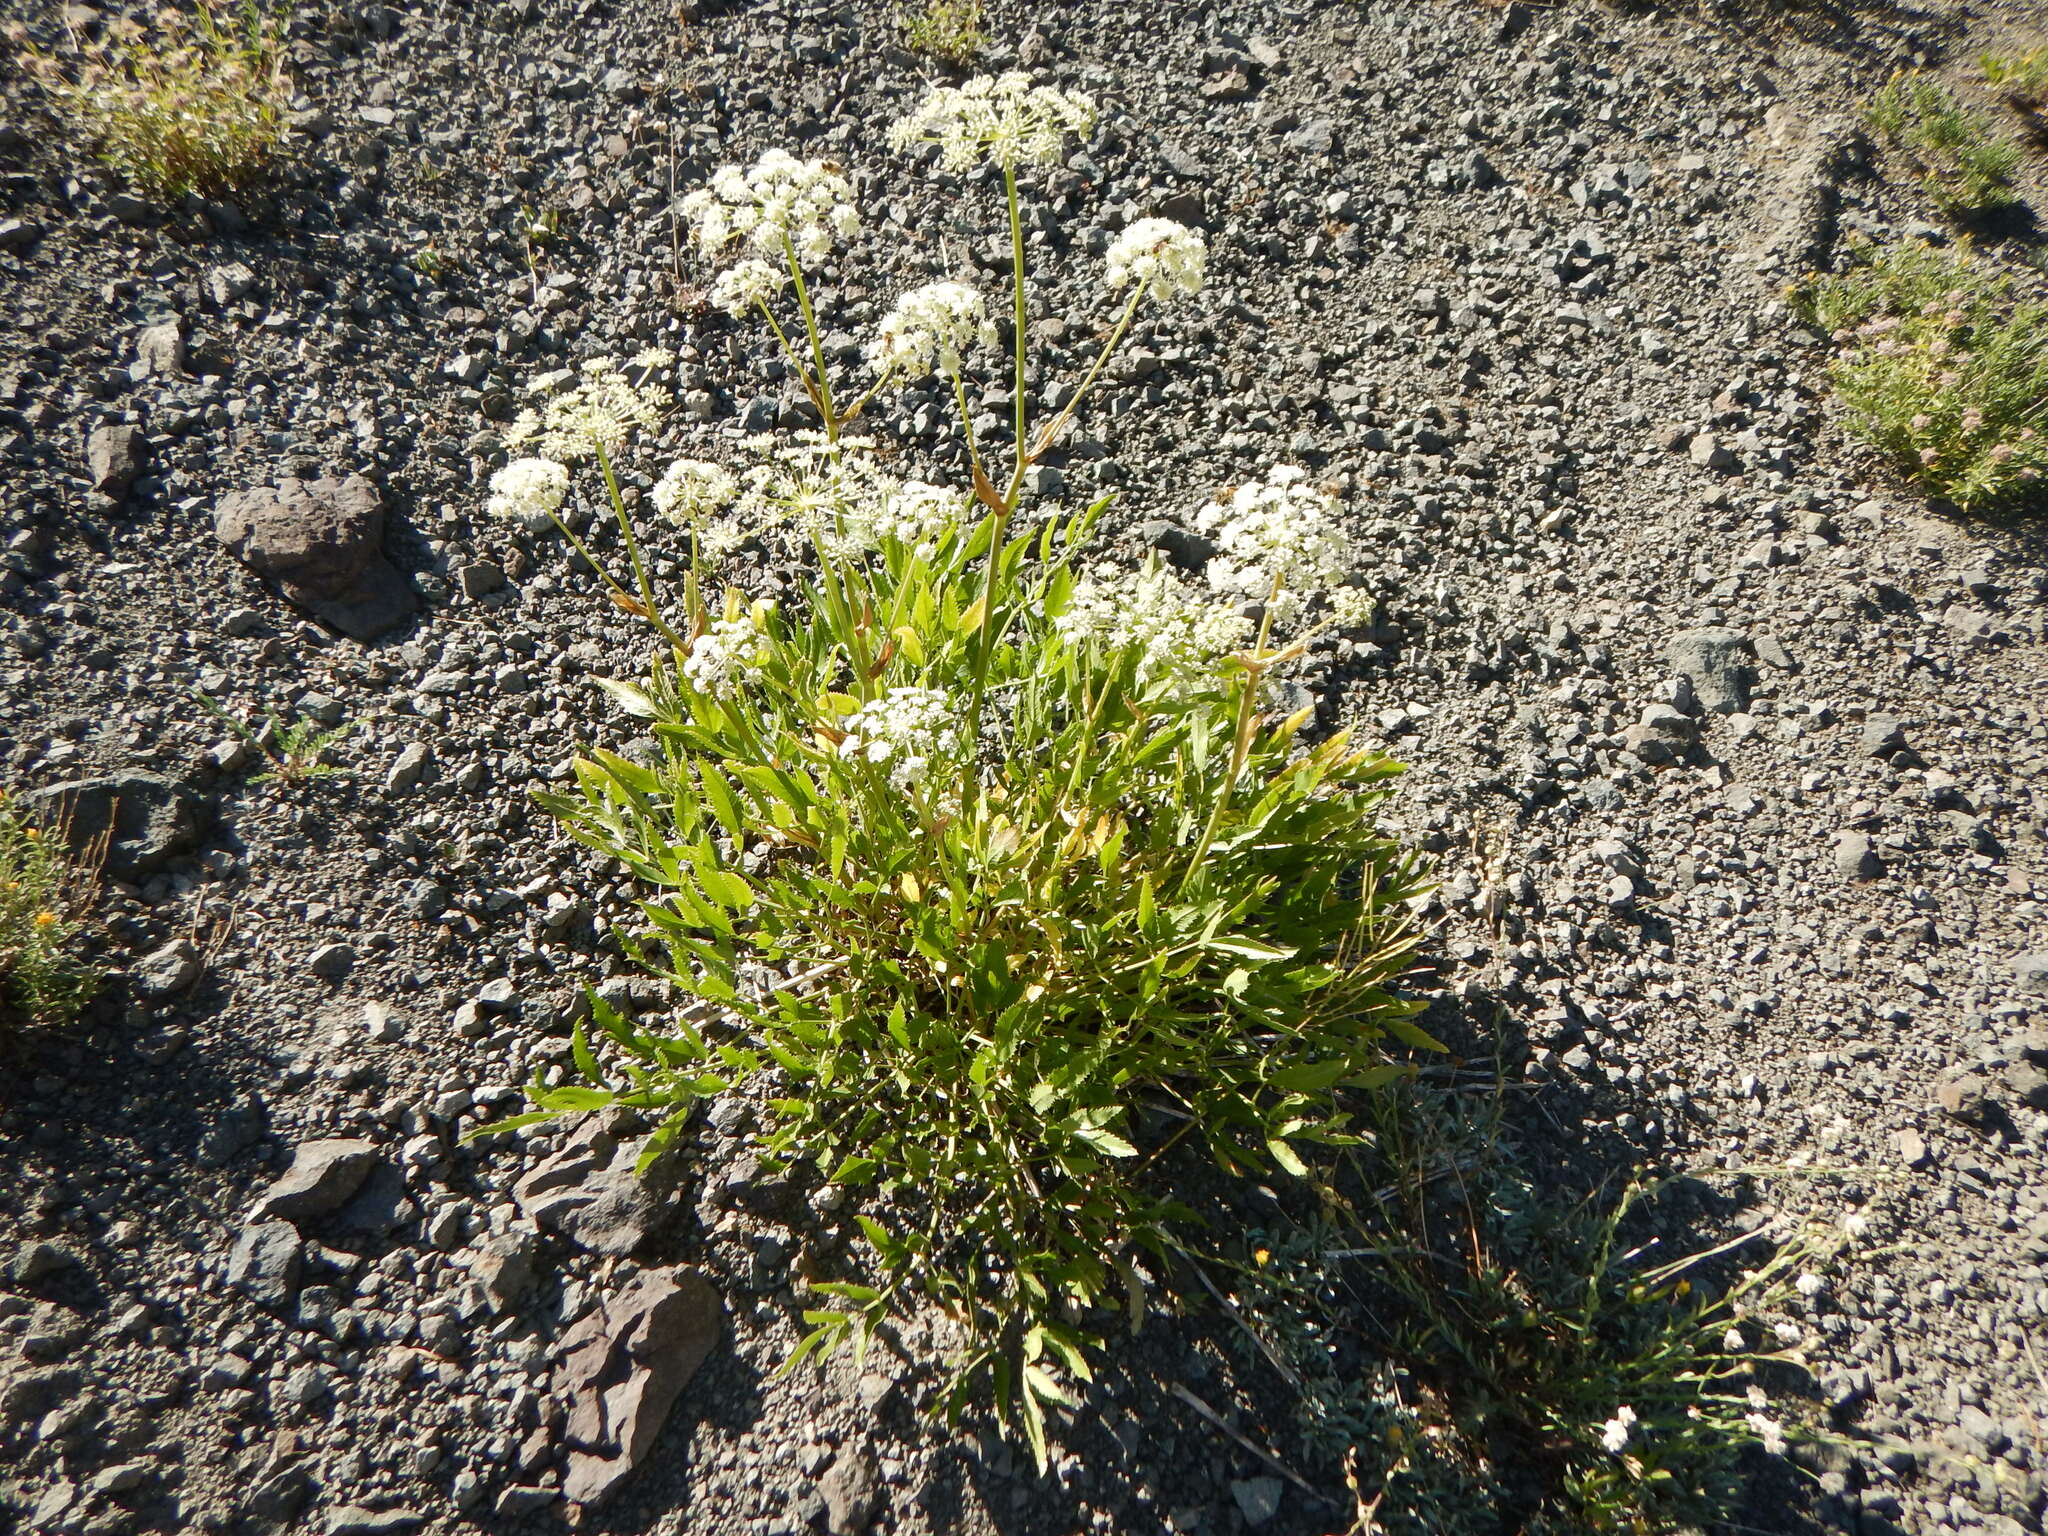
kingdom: Plantae
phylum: Tracheophyta
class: Magnoliopsida
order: Apiales
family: Apiaceae
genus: Angelica
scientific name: Angelica breweri
